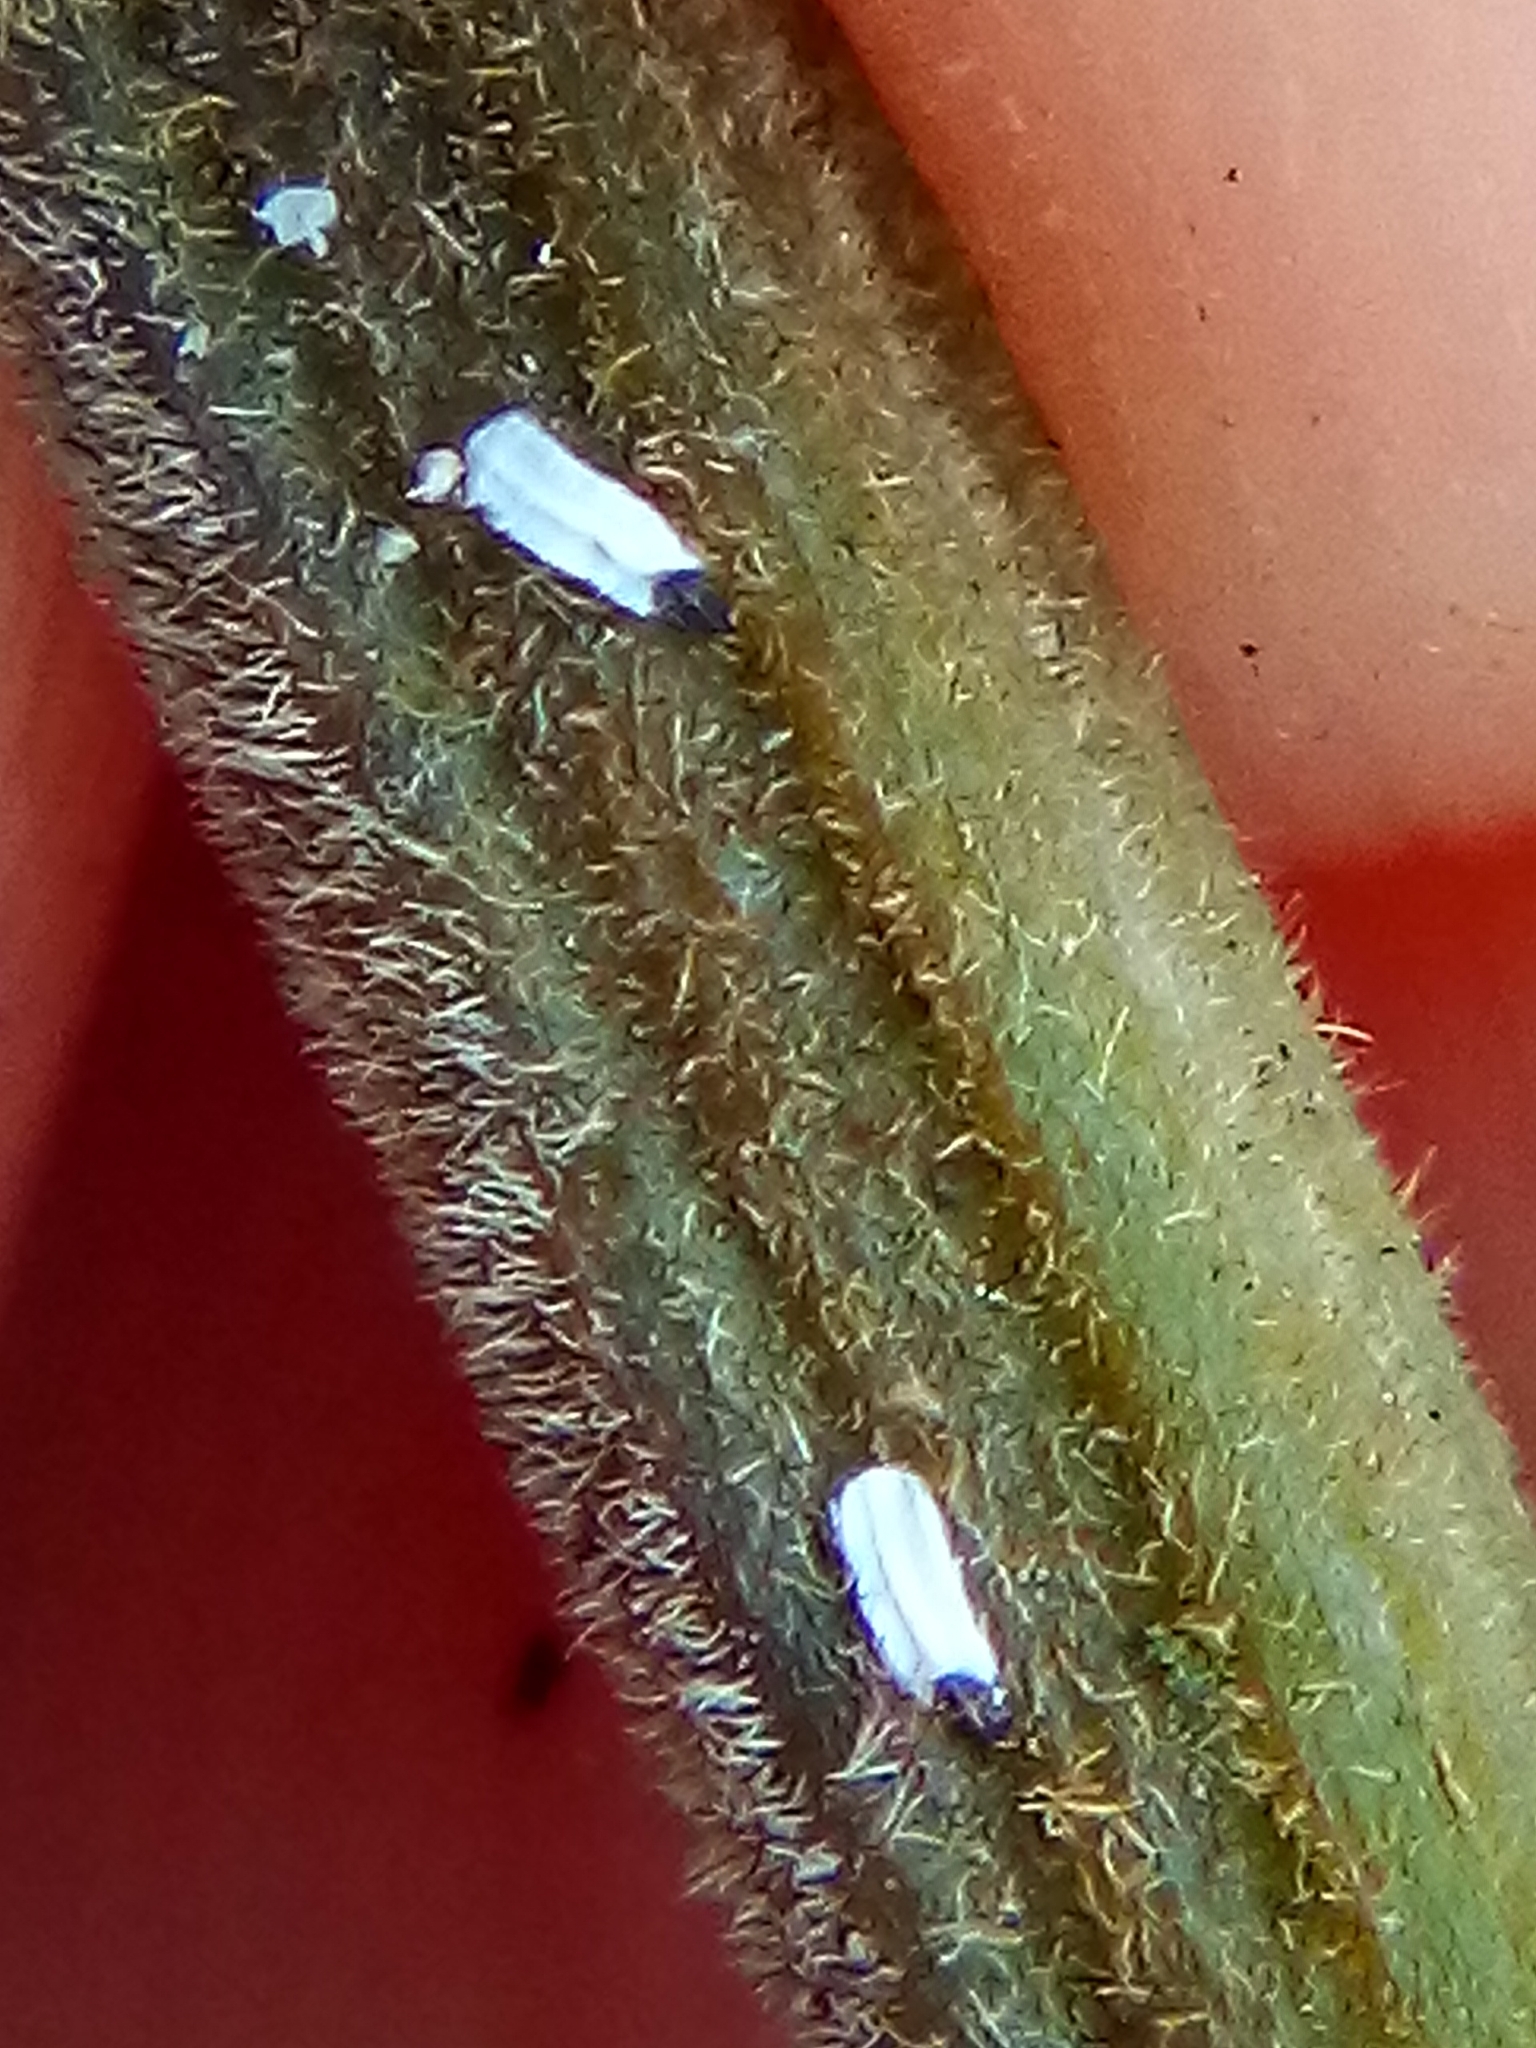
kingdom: Animalia
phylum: Arthropoda
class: Insecta
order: Hemiptera
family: Diaspididae
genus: Trullifiorinia
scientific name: Trullifiorinia acaciae
